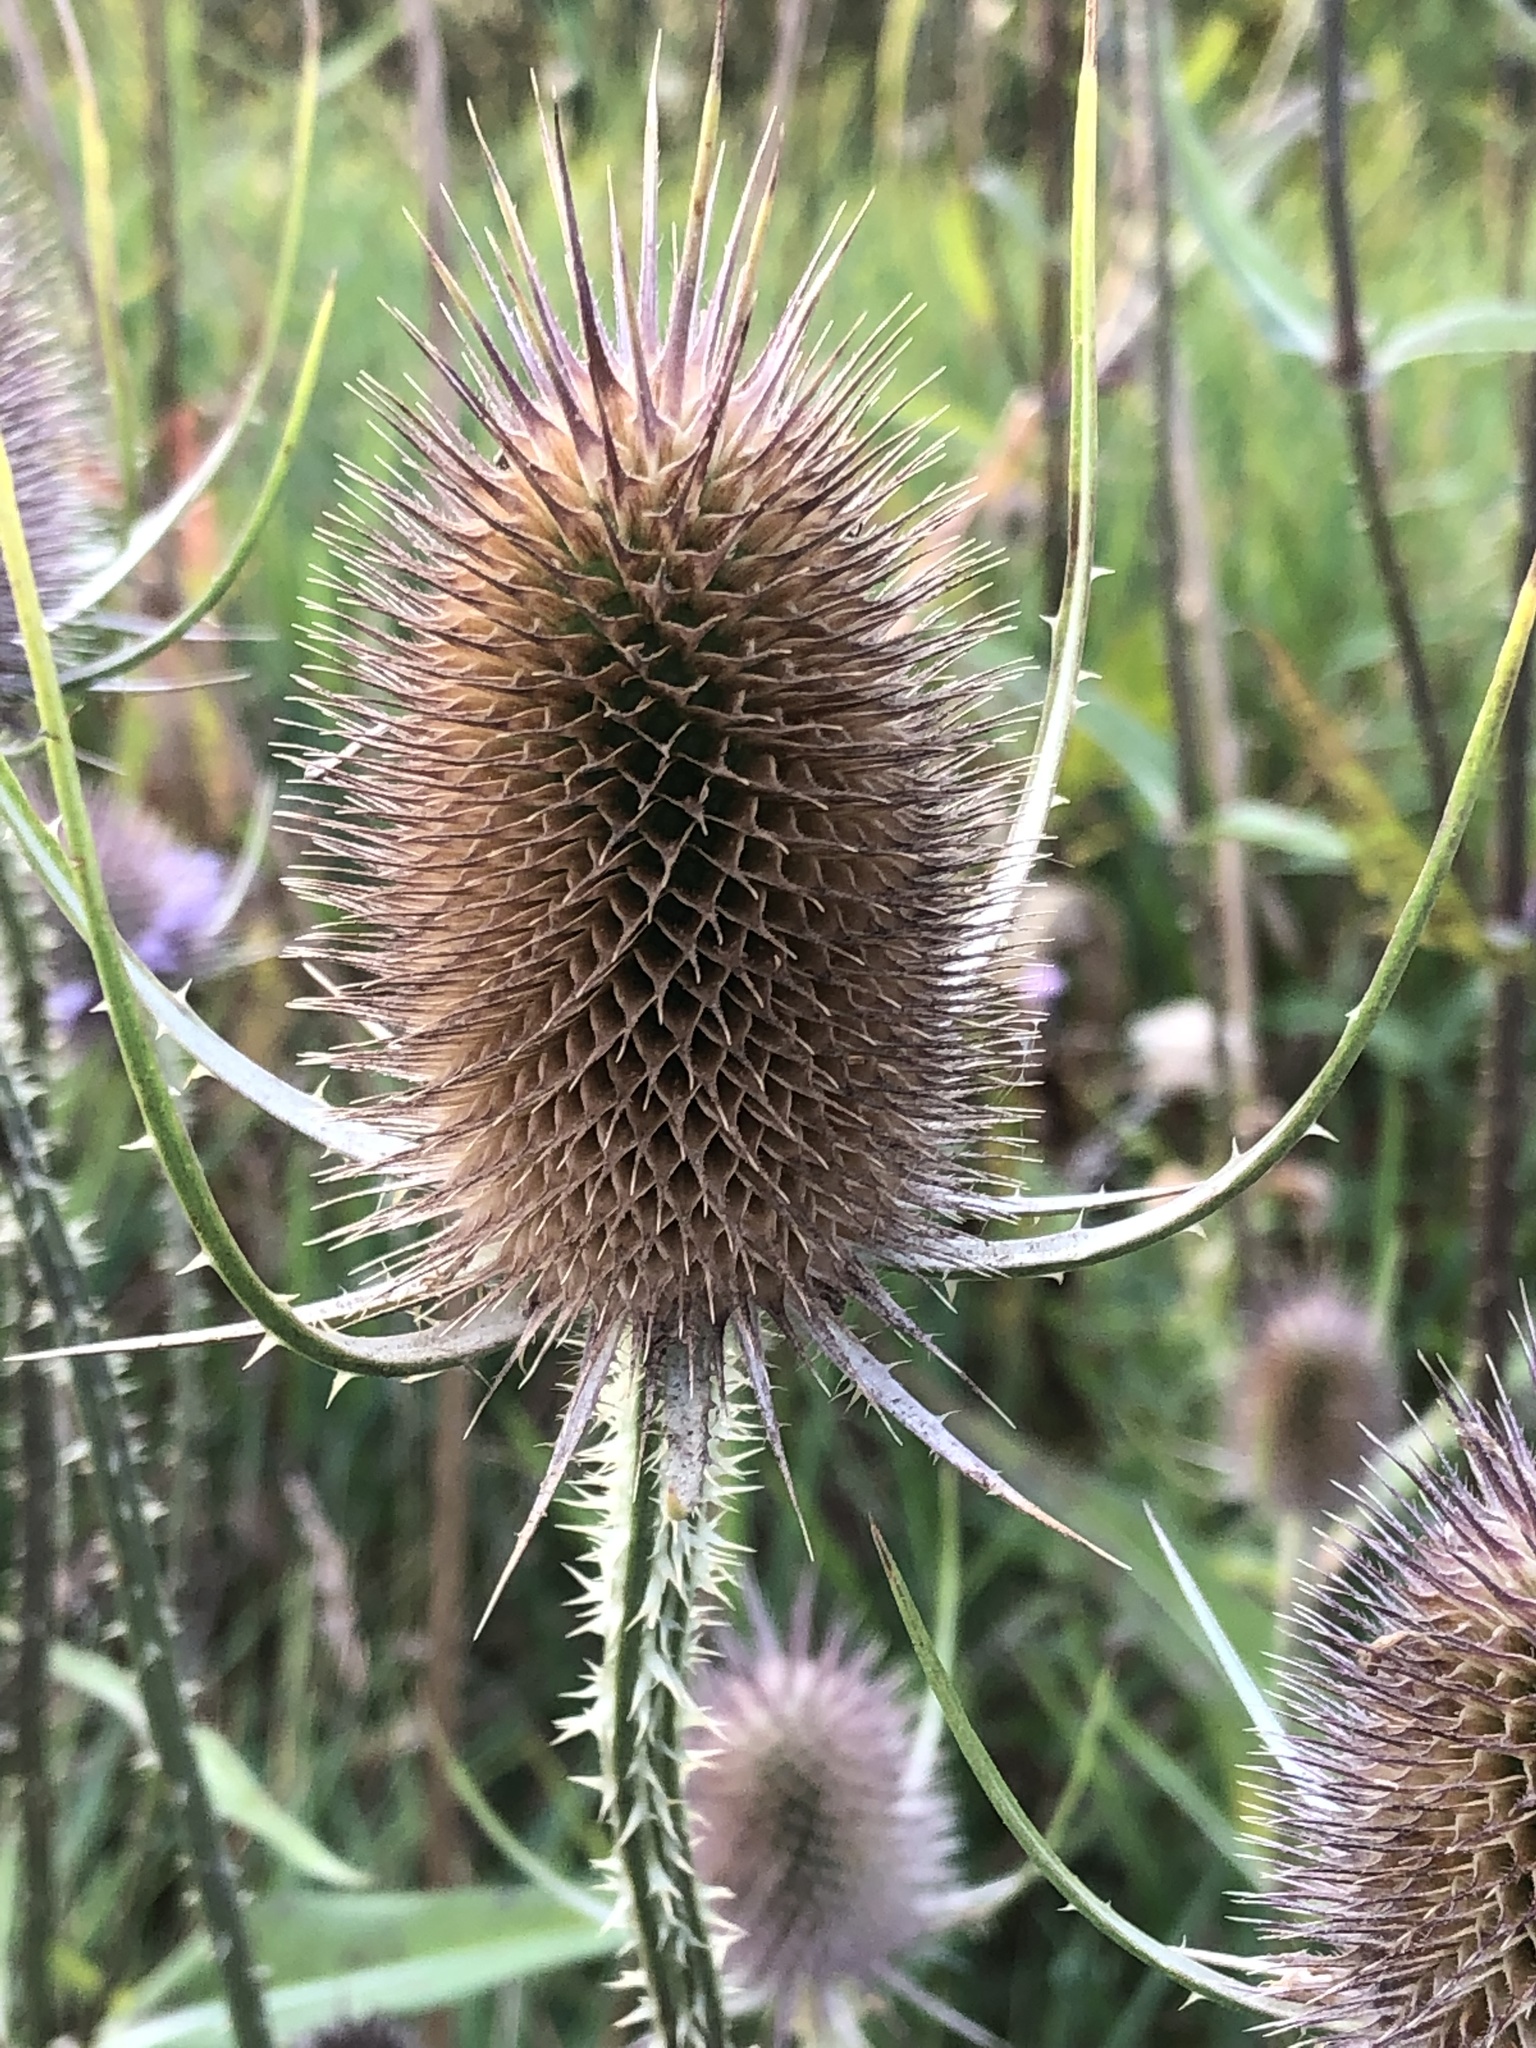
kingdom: Plantae
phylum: Tracheophyta
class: Magnoliopsida
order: Dipsacales
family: Caprifoliaceae
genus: Dipsacus
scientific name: Dipsacus fullonum
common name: Teasel
